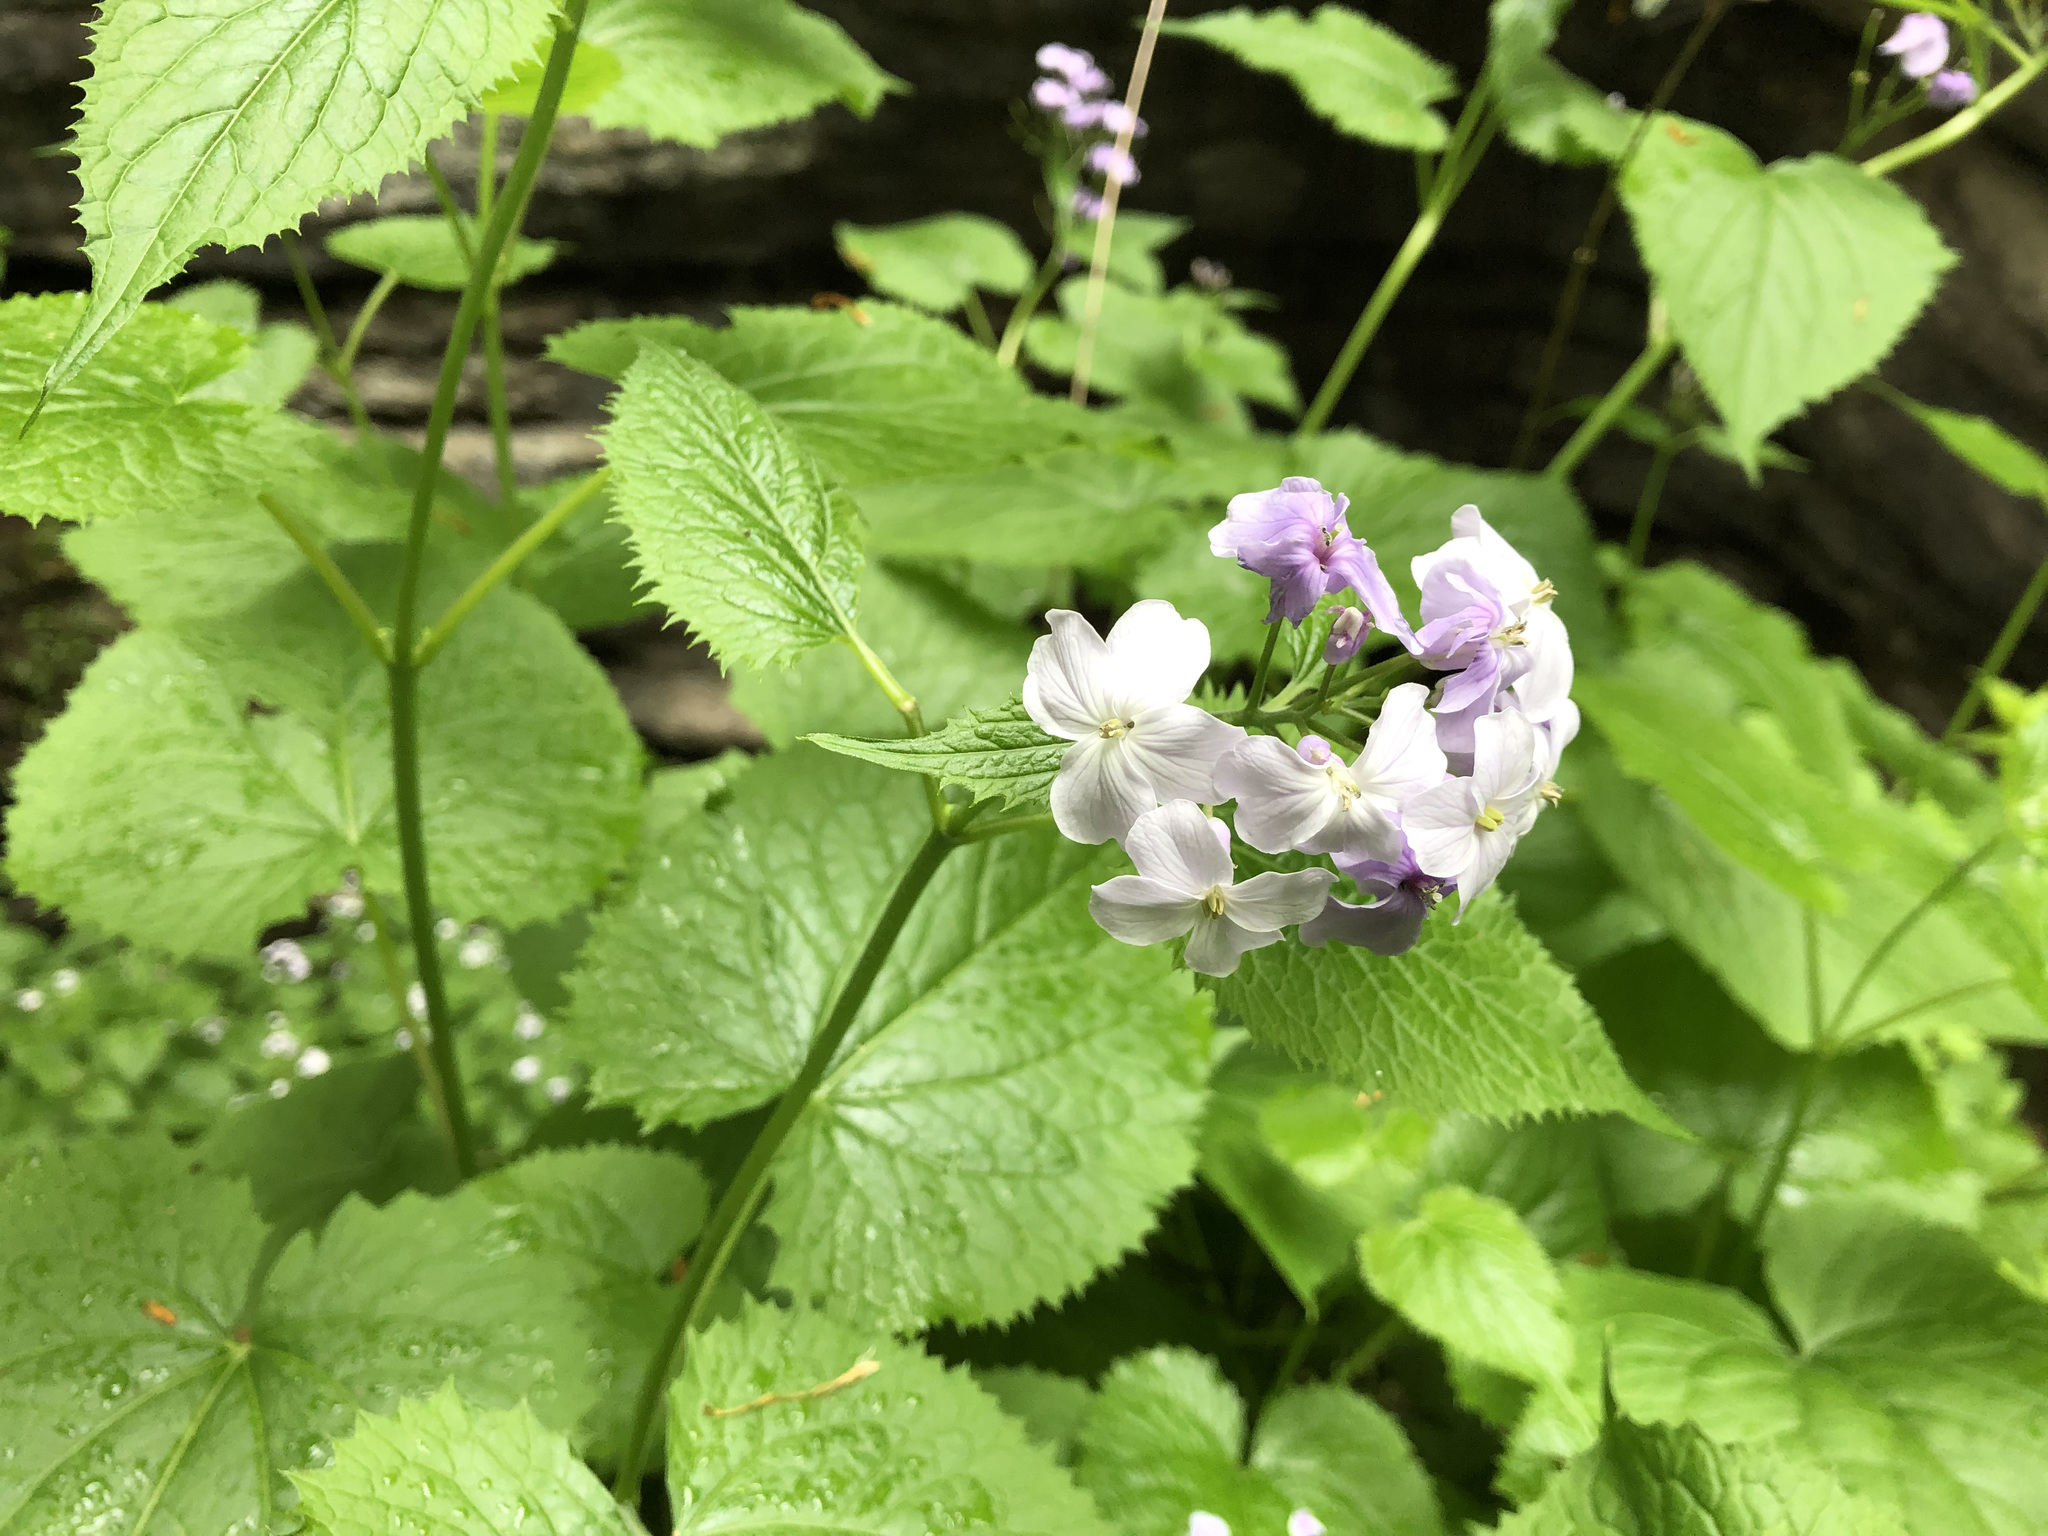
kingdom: Plantae
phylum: Tracheophyta
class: Magnoliopsida
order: Brassicales
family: Brassicaceae
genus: Lunaria
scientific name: Lunaria rediviva
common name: Perennial honesty
